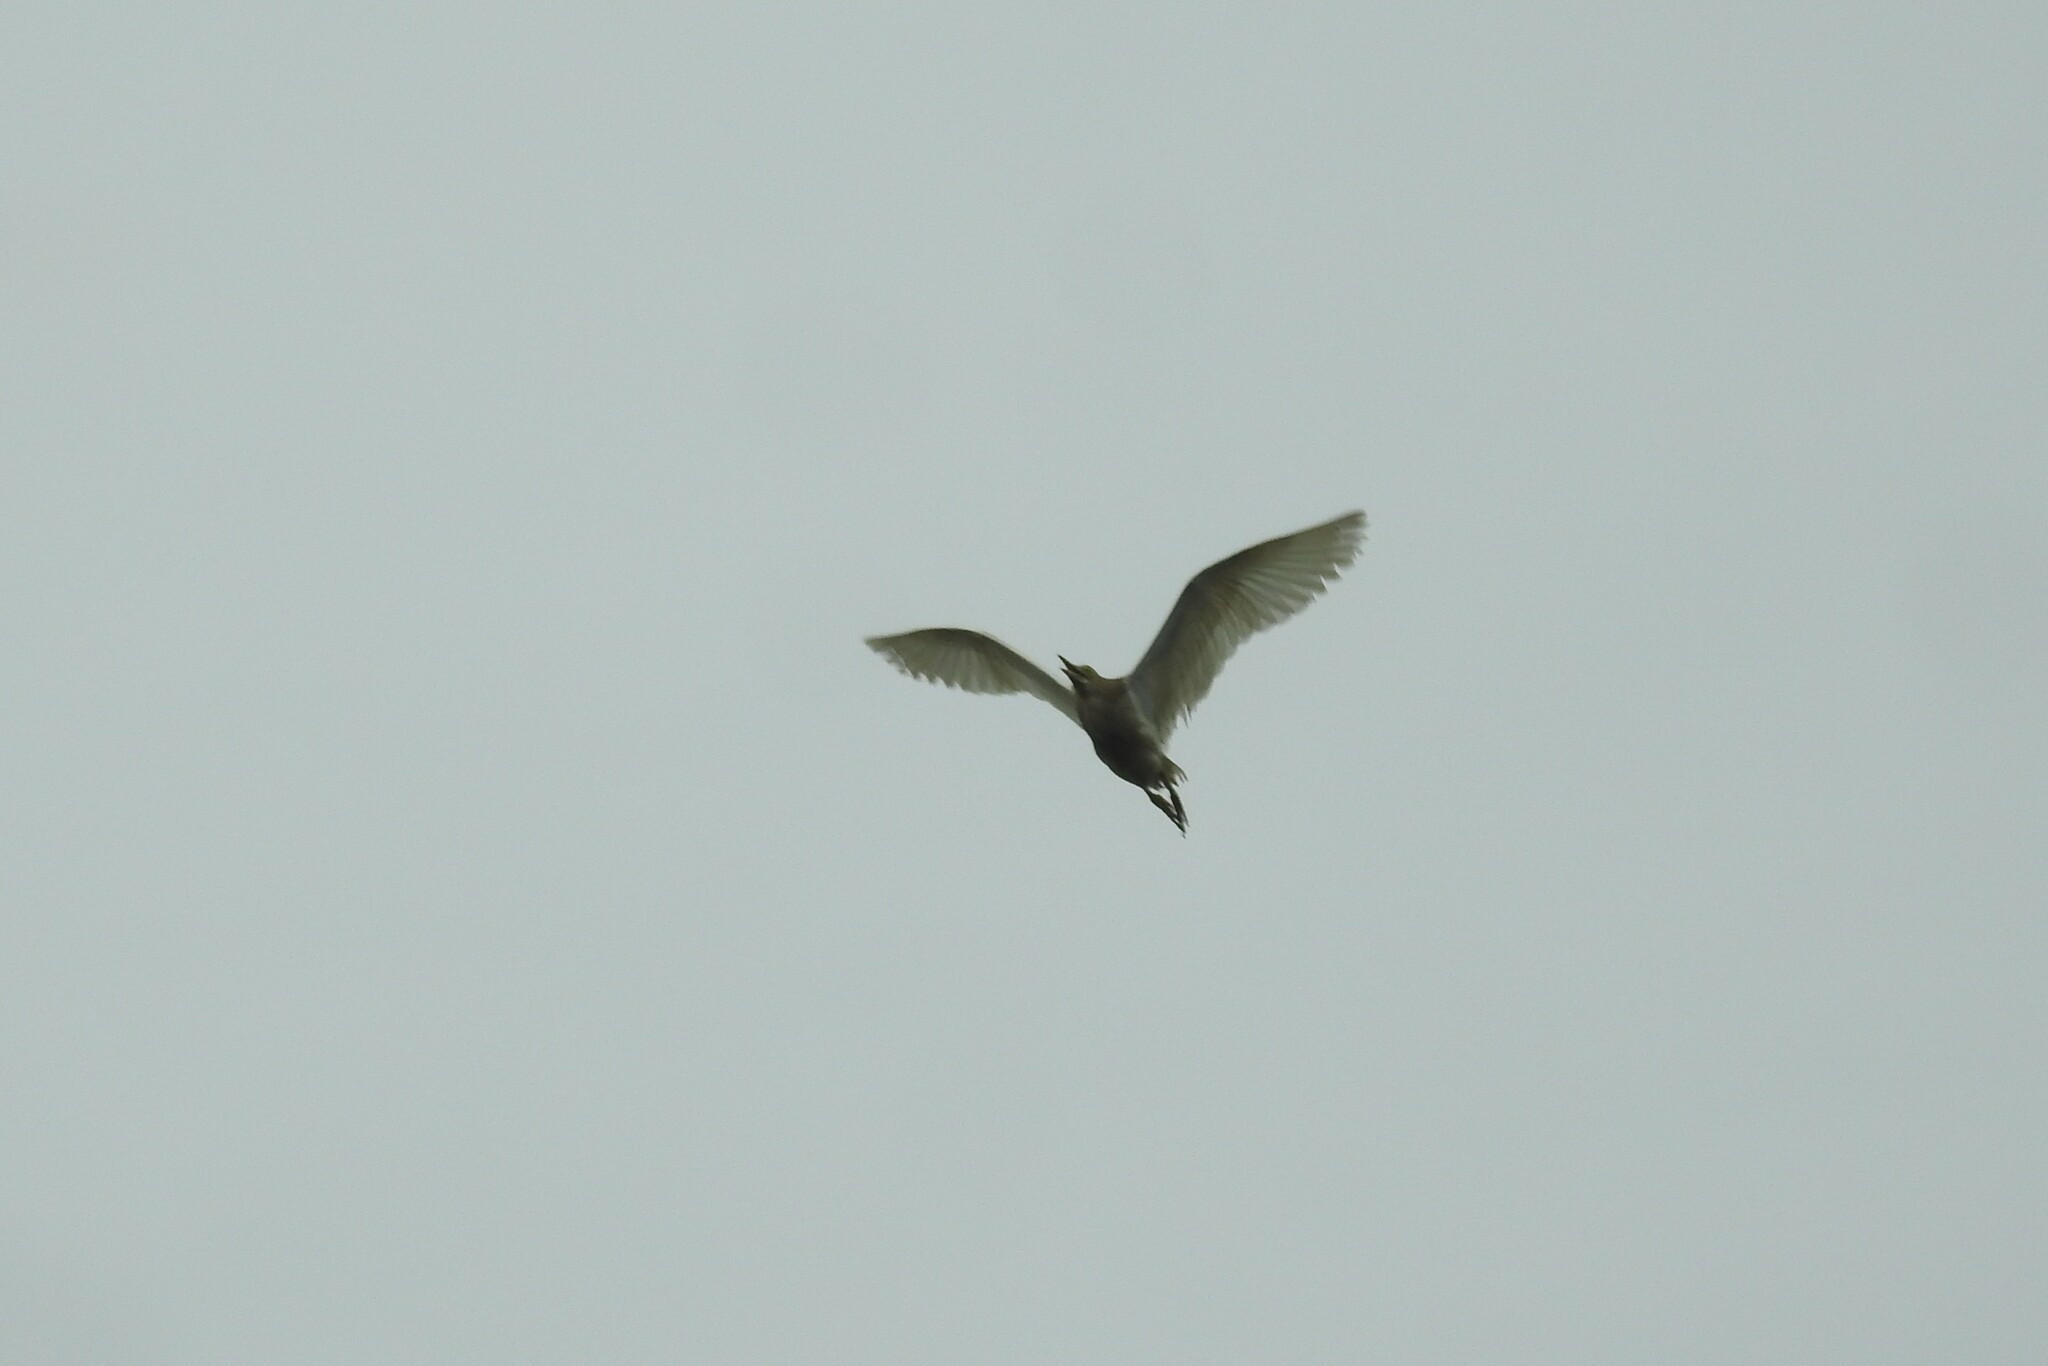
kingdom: Animalia
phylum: Chordata
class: Aves
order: Pelecaniformes
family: Ardeidae
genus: Ardeola
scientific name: Ardeola grayii
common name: Indian pond heron
